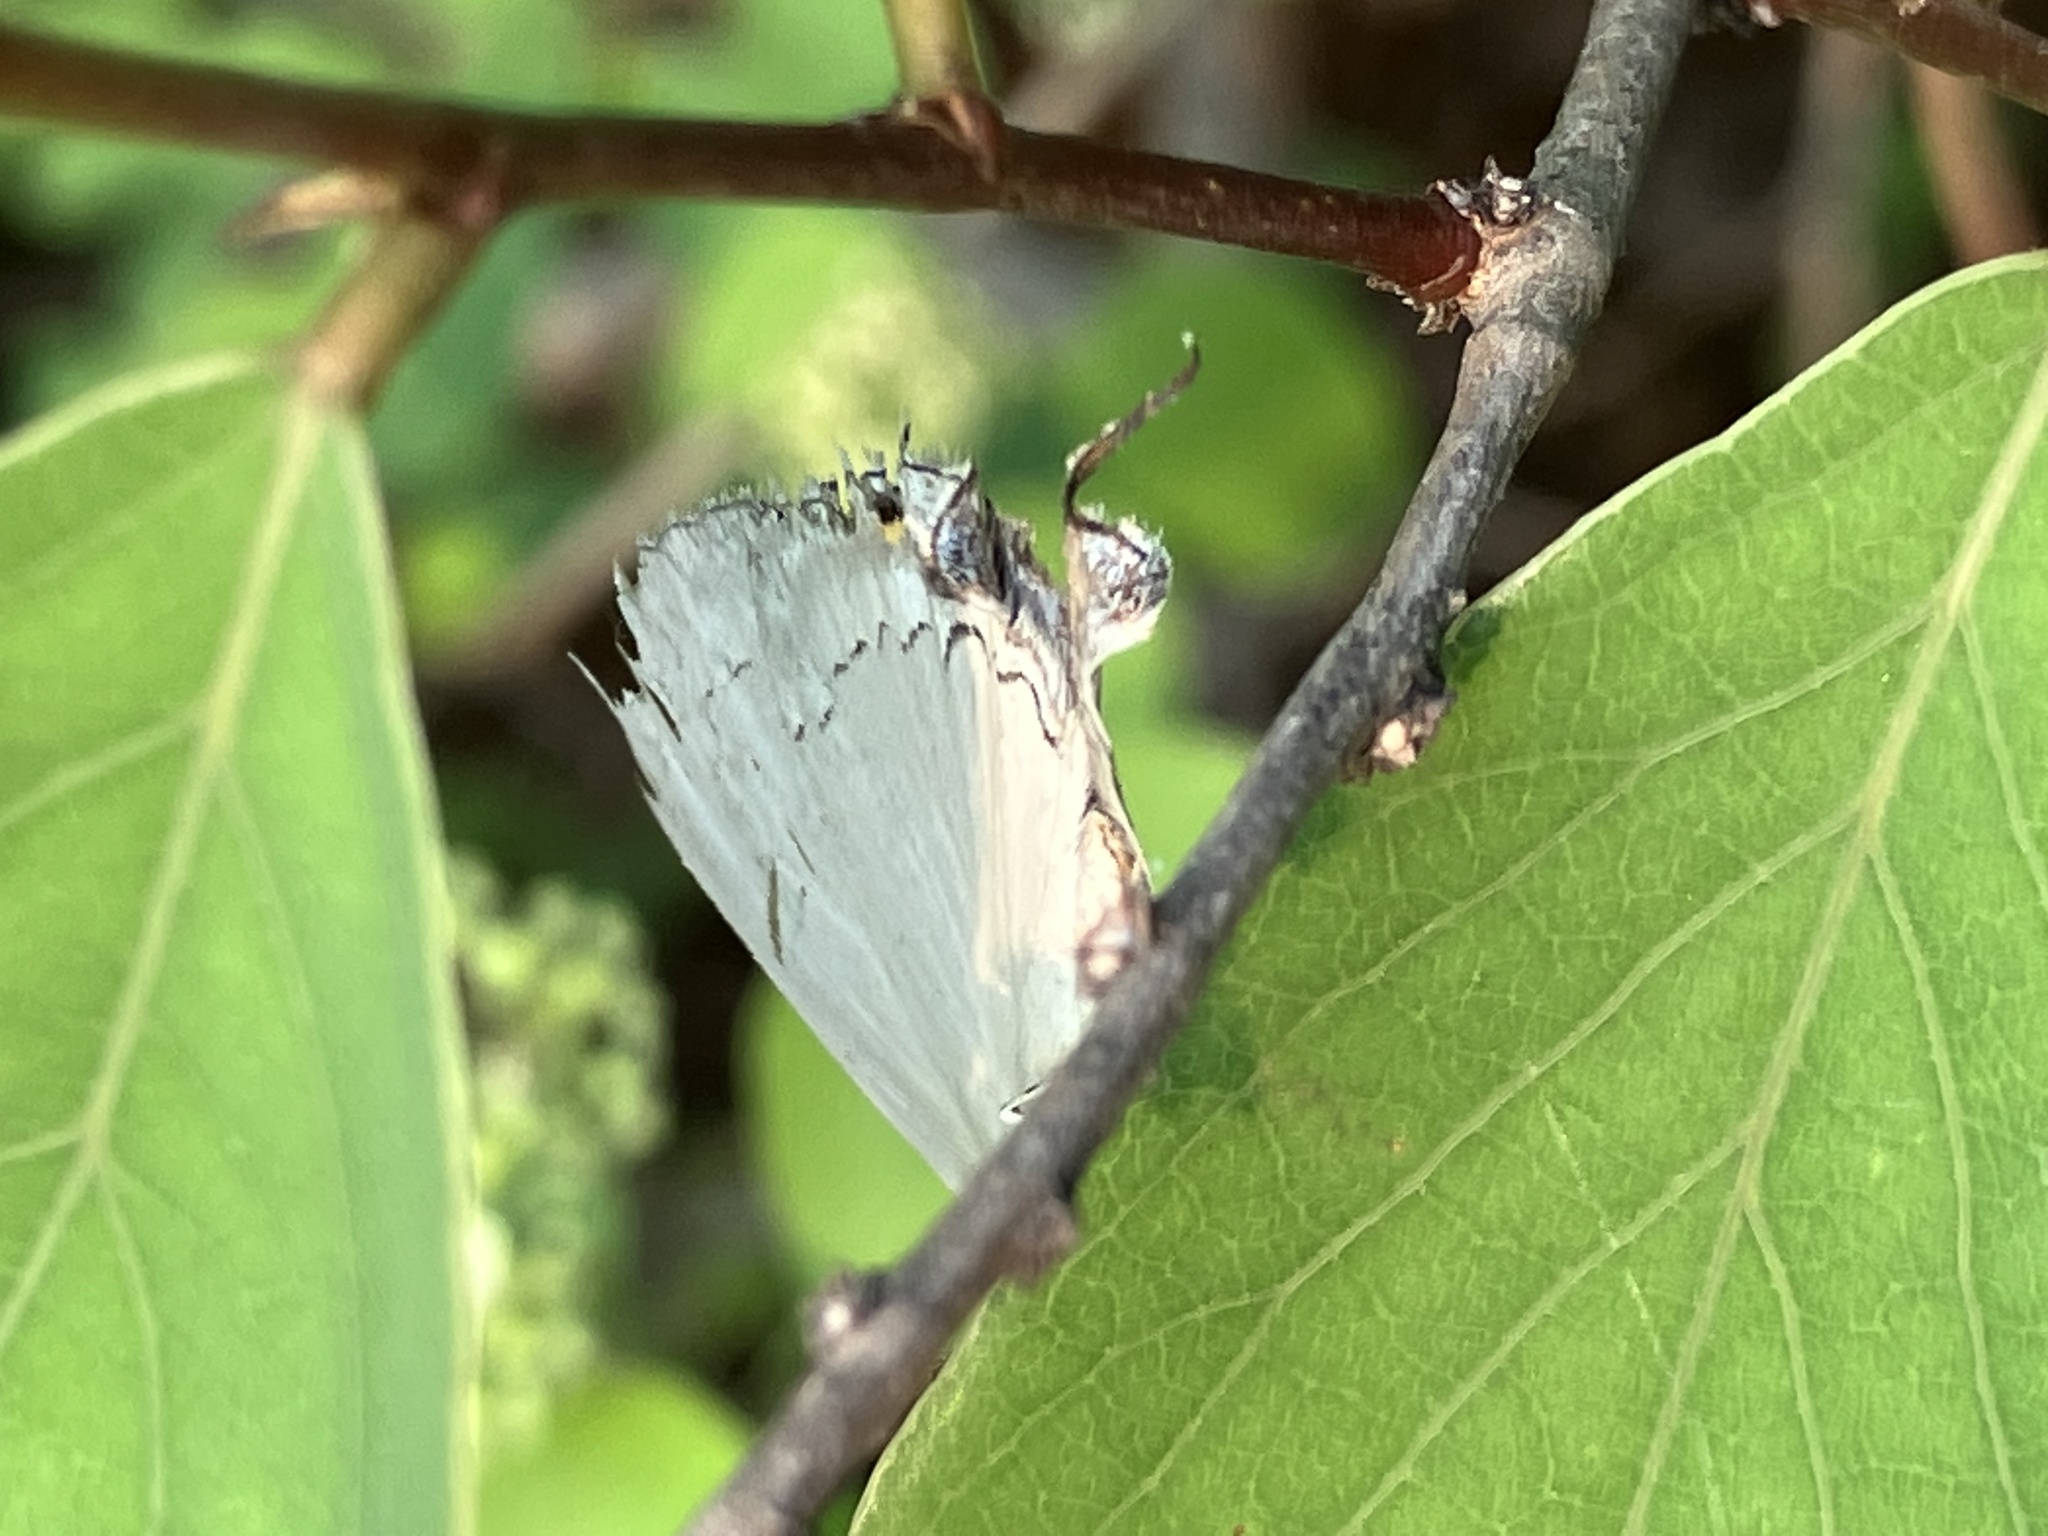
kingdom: Animalia
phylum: Arthropoda
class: Insecta
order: Lepidoptera
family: Lycaenidae
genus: Tajuria
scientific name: Tajuria cippus
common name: Peacock royal
